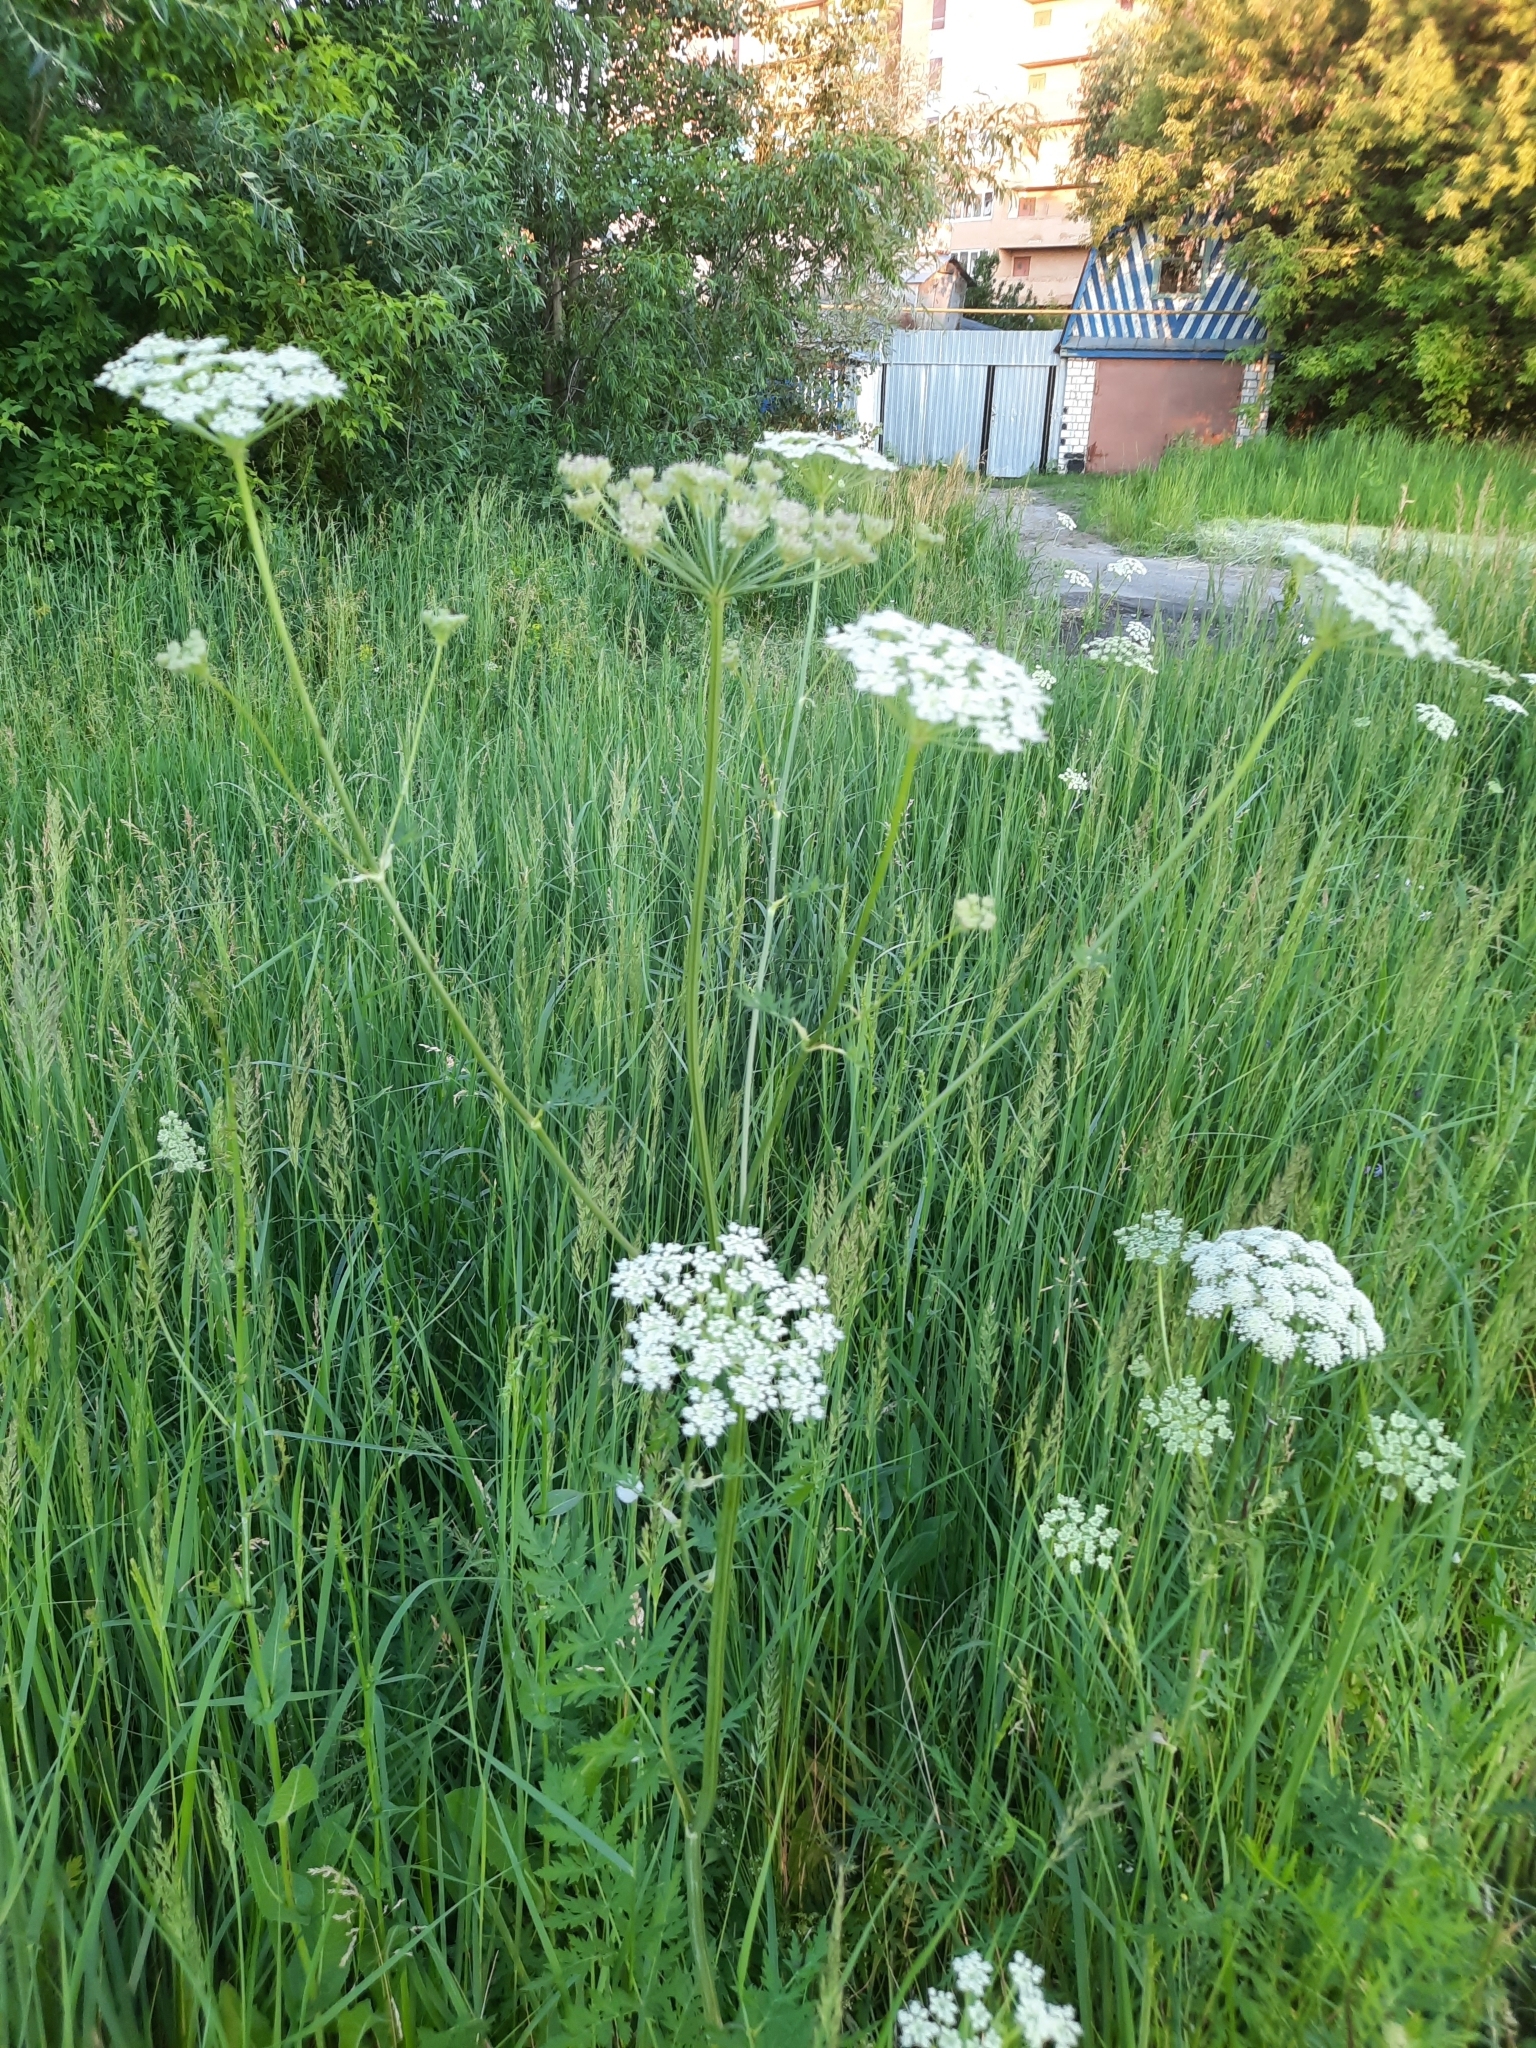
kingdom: Plantae
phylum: Tracheophyta
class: Magnoliopsida
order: Apiales
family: Apiaceae
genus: Seseli
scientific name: Seseli libanotis
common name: Mooncarrot
